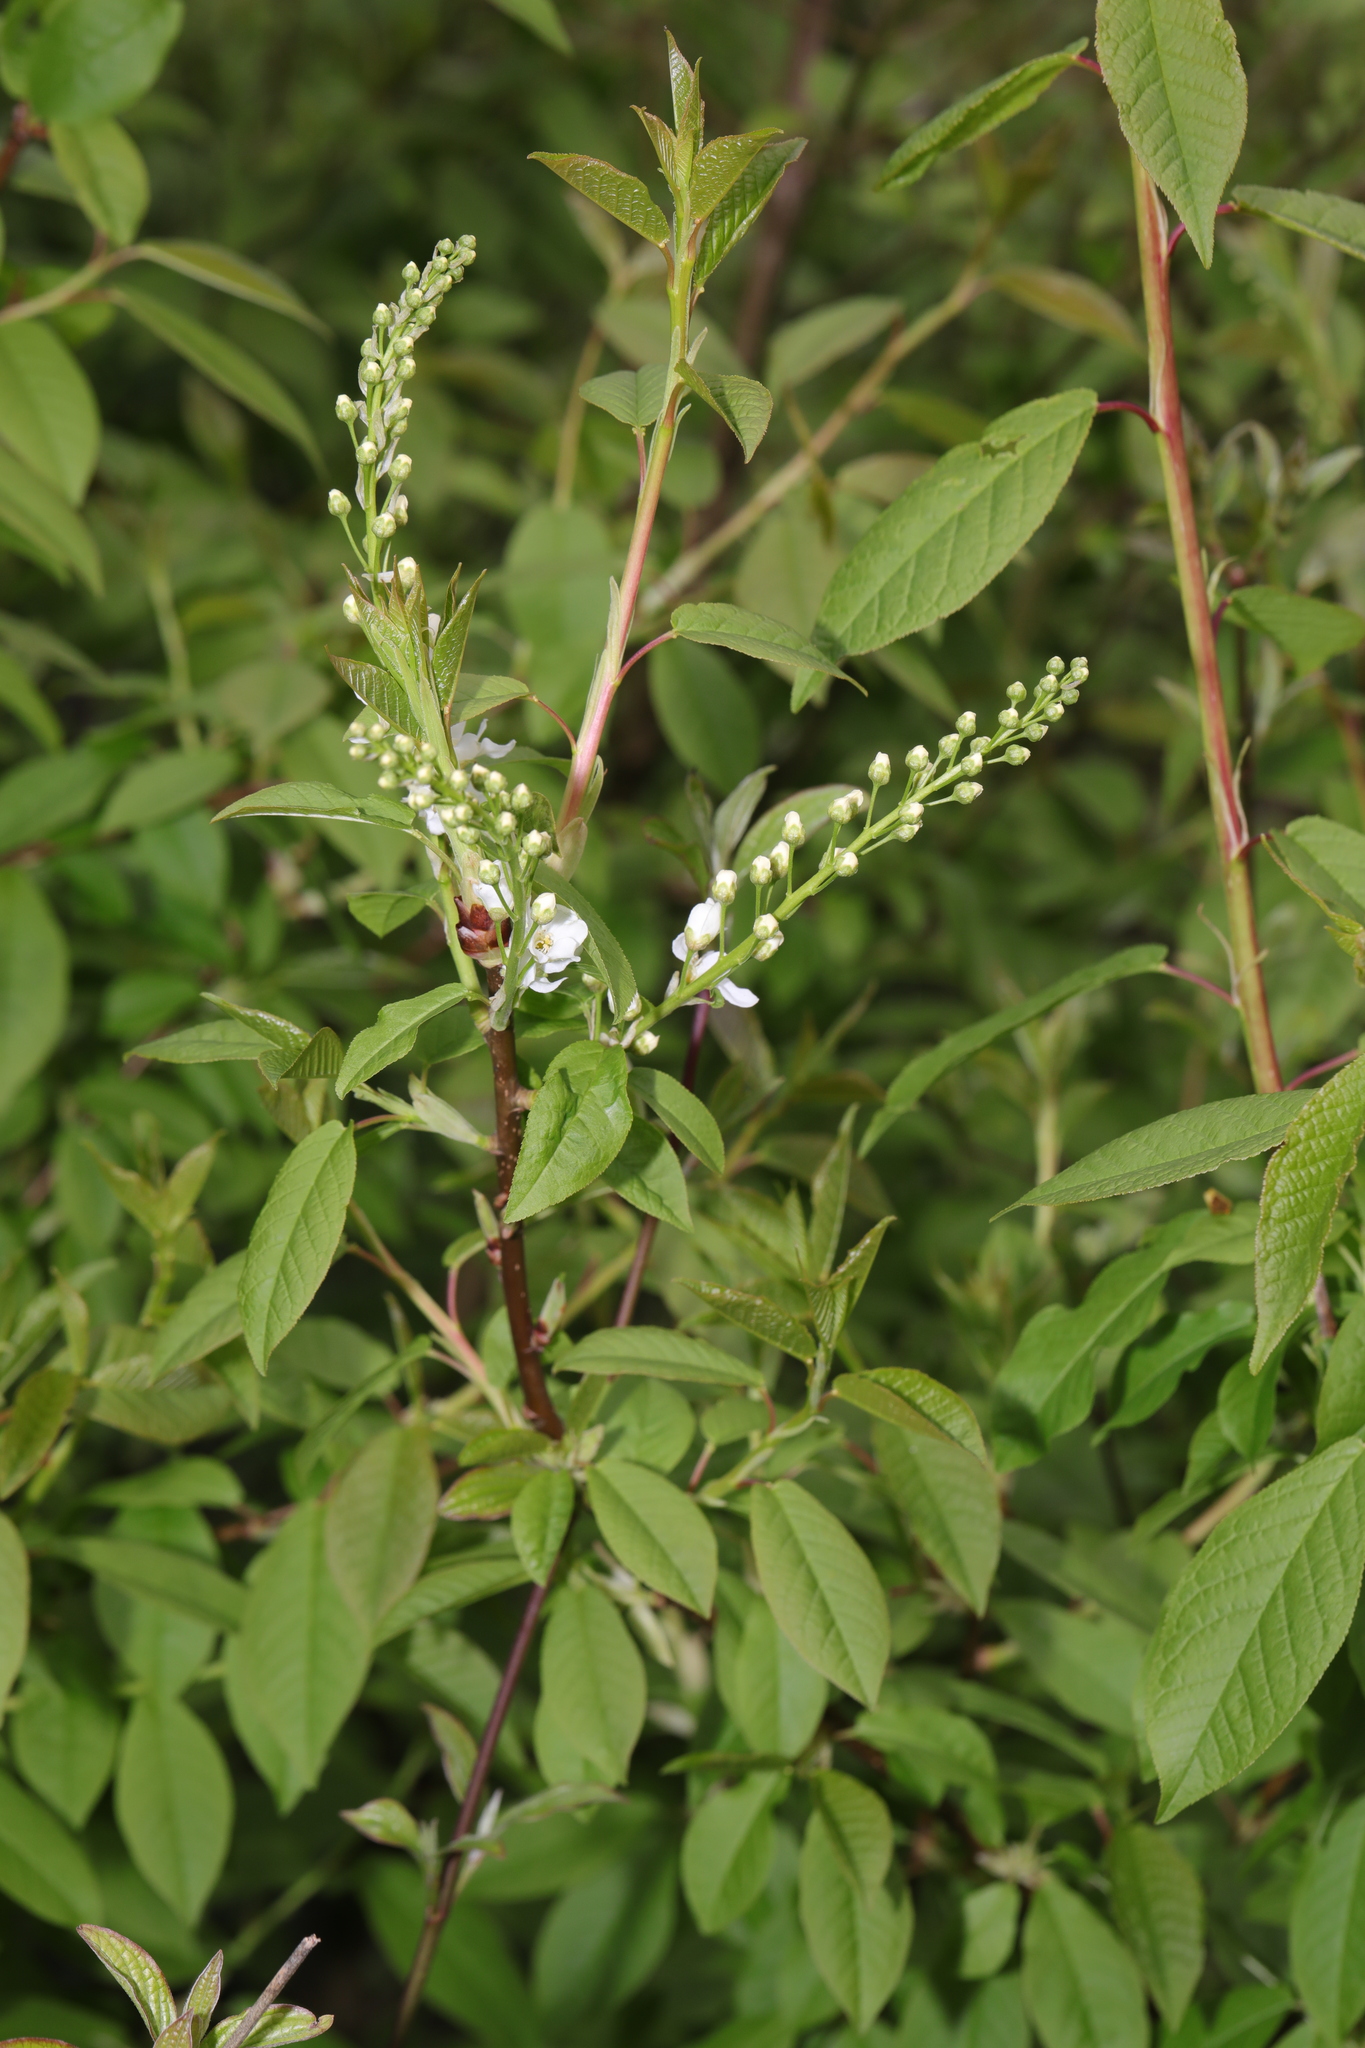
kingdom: Plantae
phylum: Tracheophyta
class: Magnoliopsida
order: Rosales
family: Rosaceae
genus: Prunus
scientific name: Prunus padus
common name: Bird cherry
